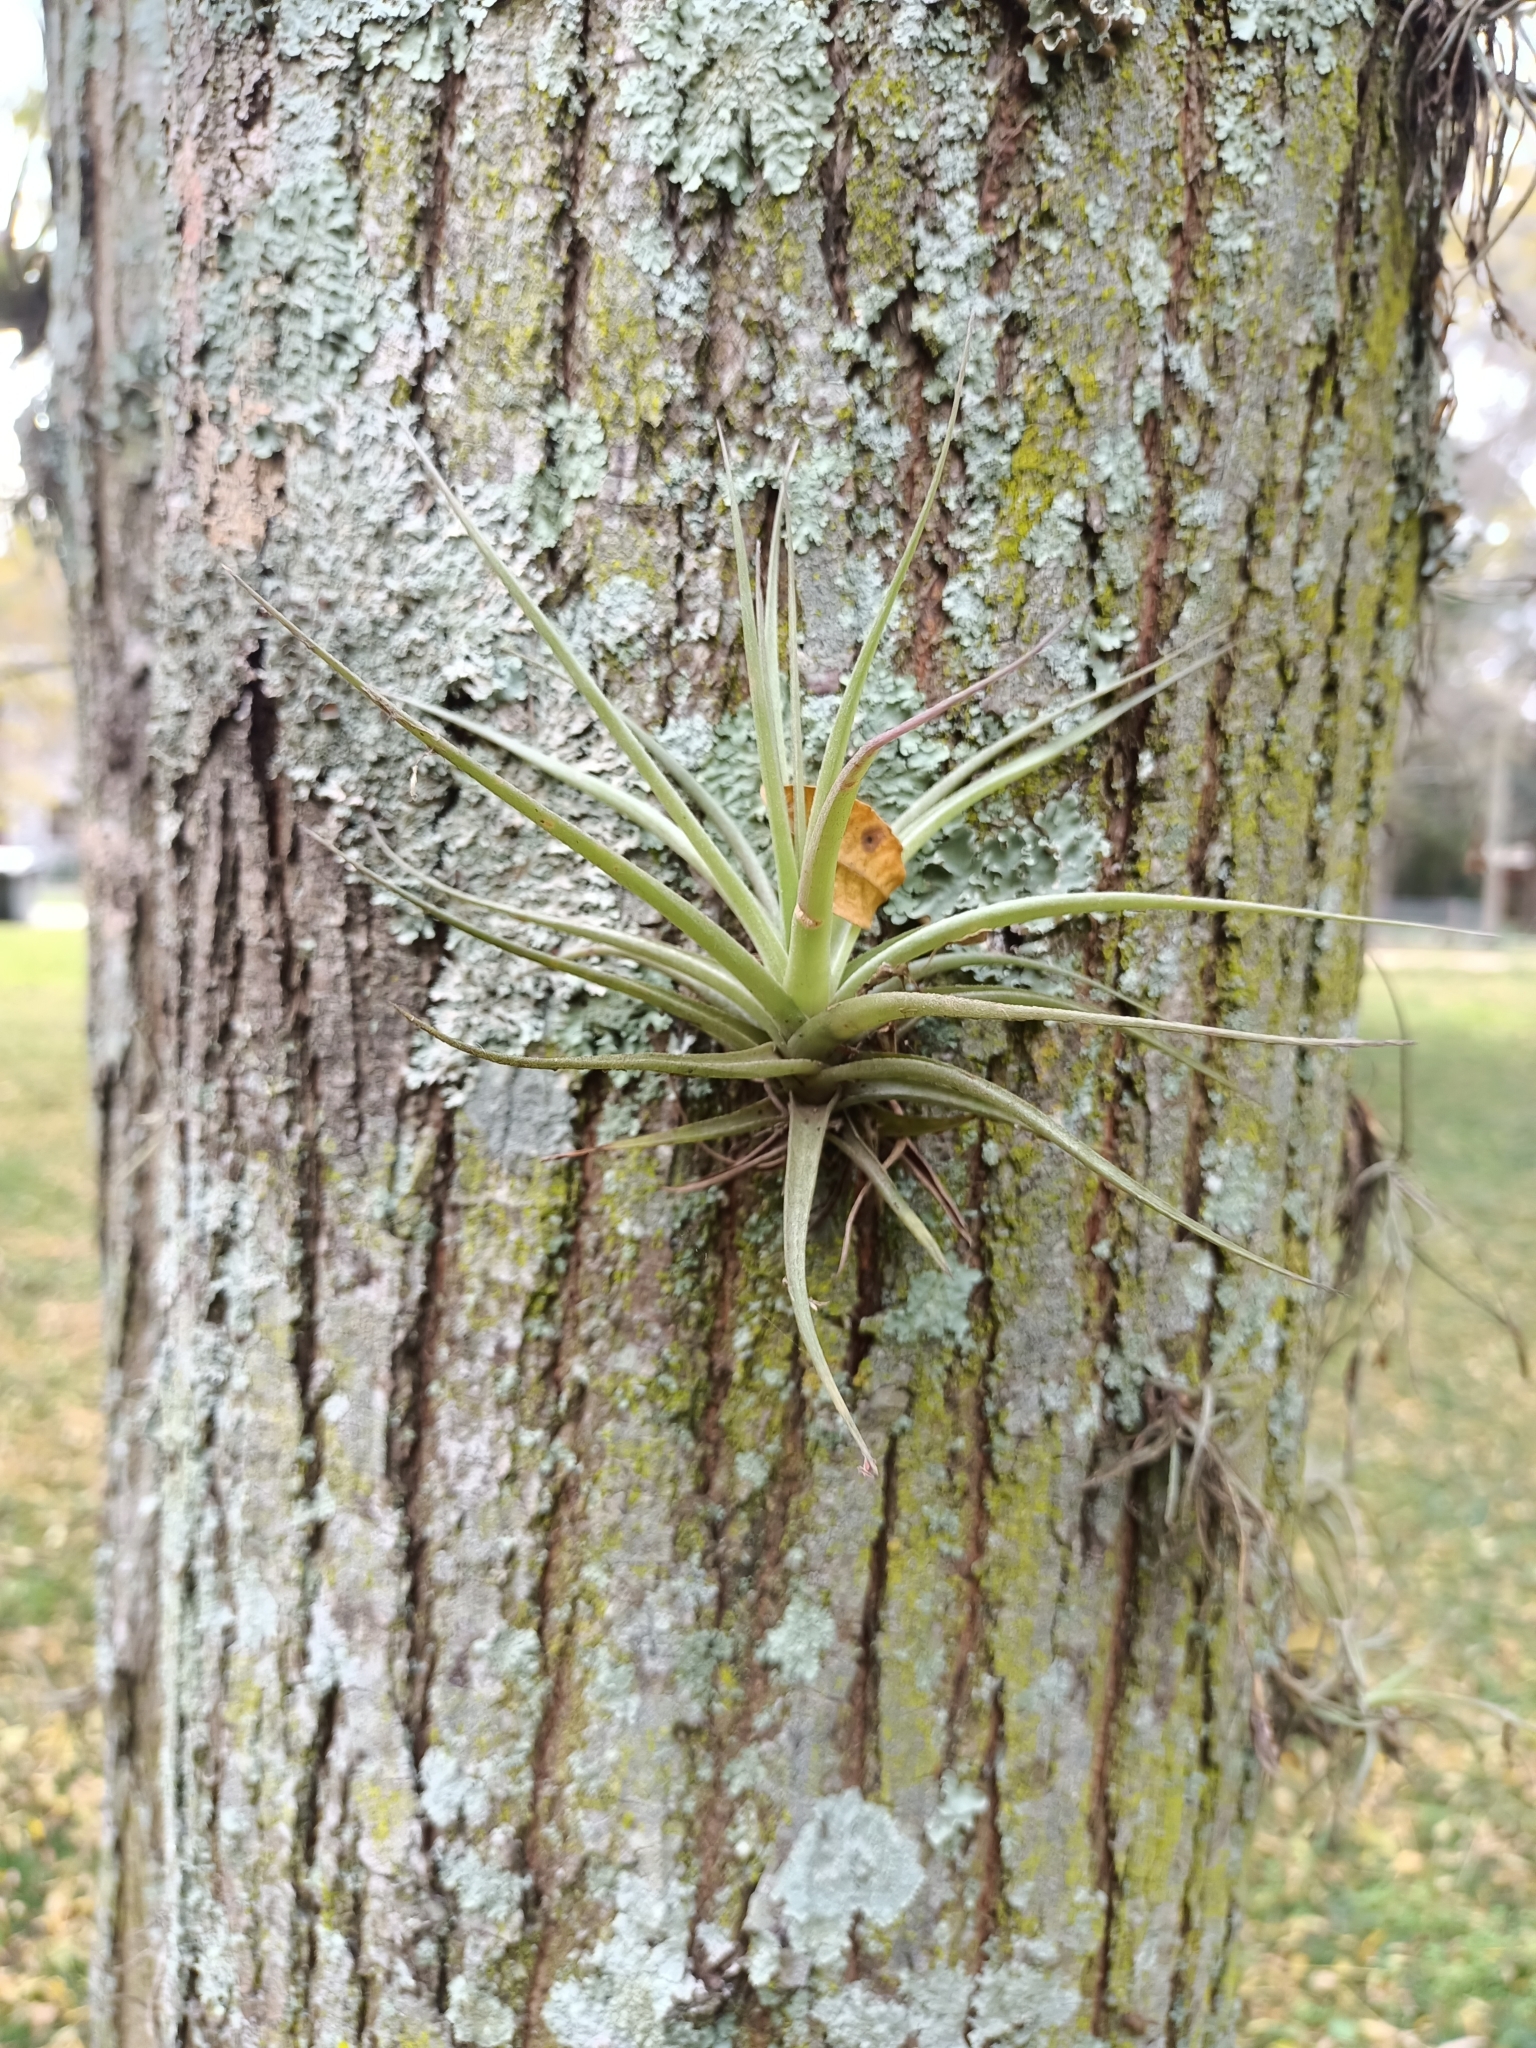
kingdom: Plantae
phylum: Tracheophyta
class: Liliopsida
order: Poales
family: Bromeliaceae
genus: Tillandsia
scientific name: Tillandsia aeranthos
